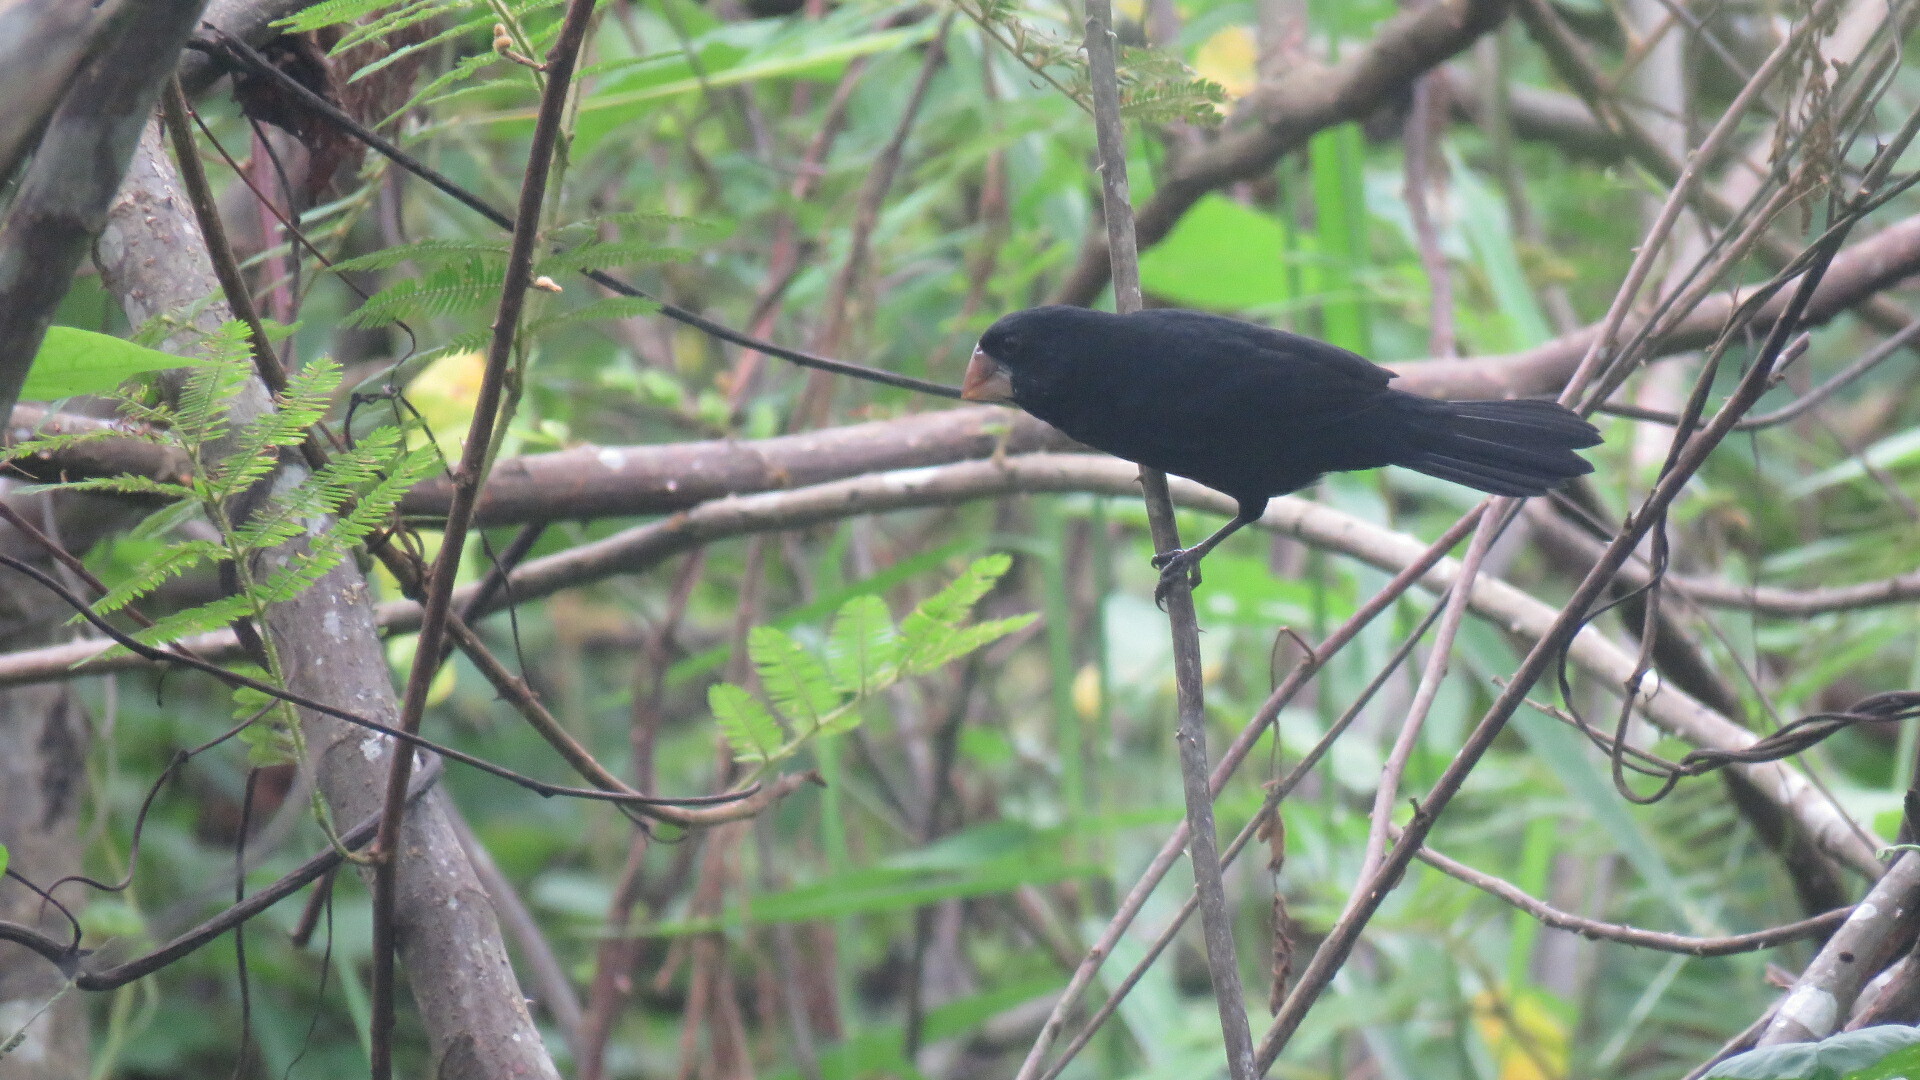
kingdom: Animalia
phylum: Chordata
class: Aves
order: Passeriformes
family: Thraupidae
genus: Sporophila
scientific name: Sporophila nuttingi
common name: Nicaraguan seed-finch
